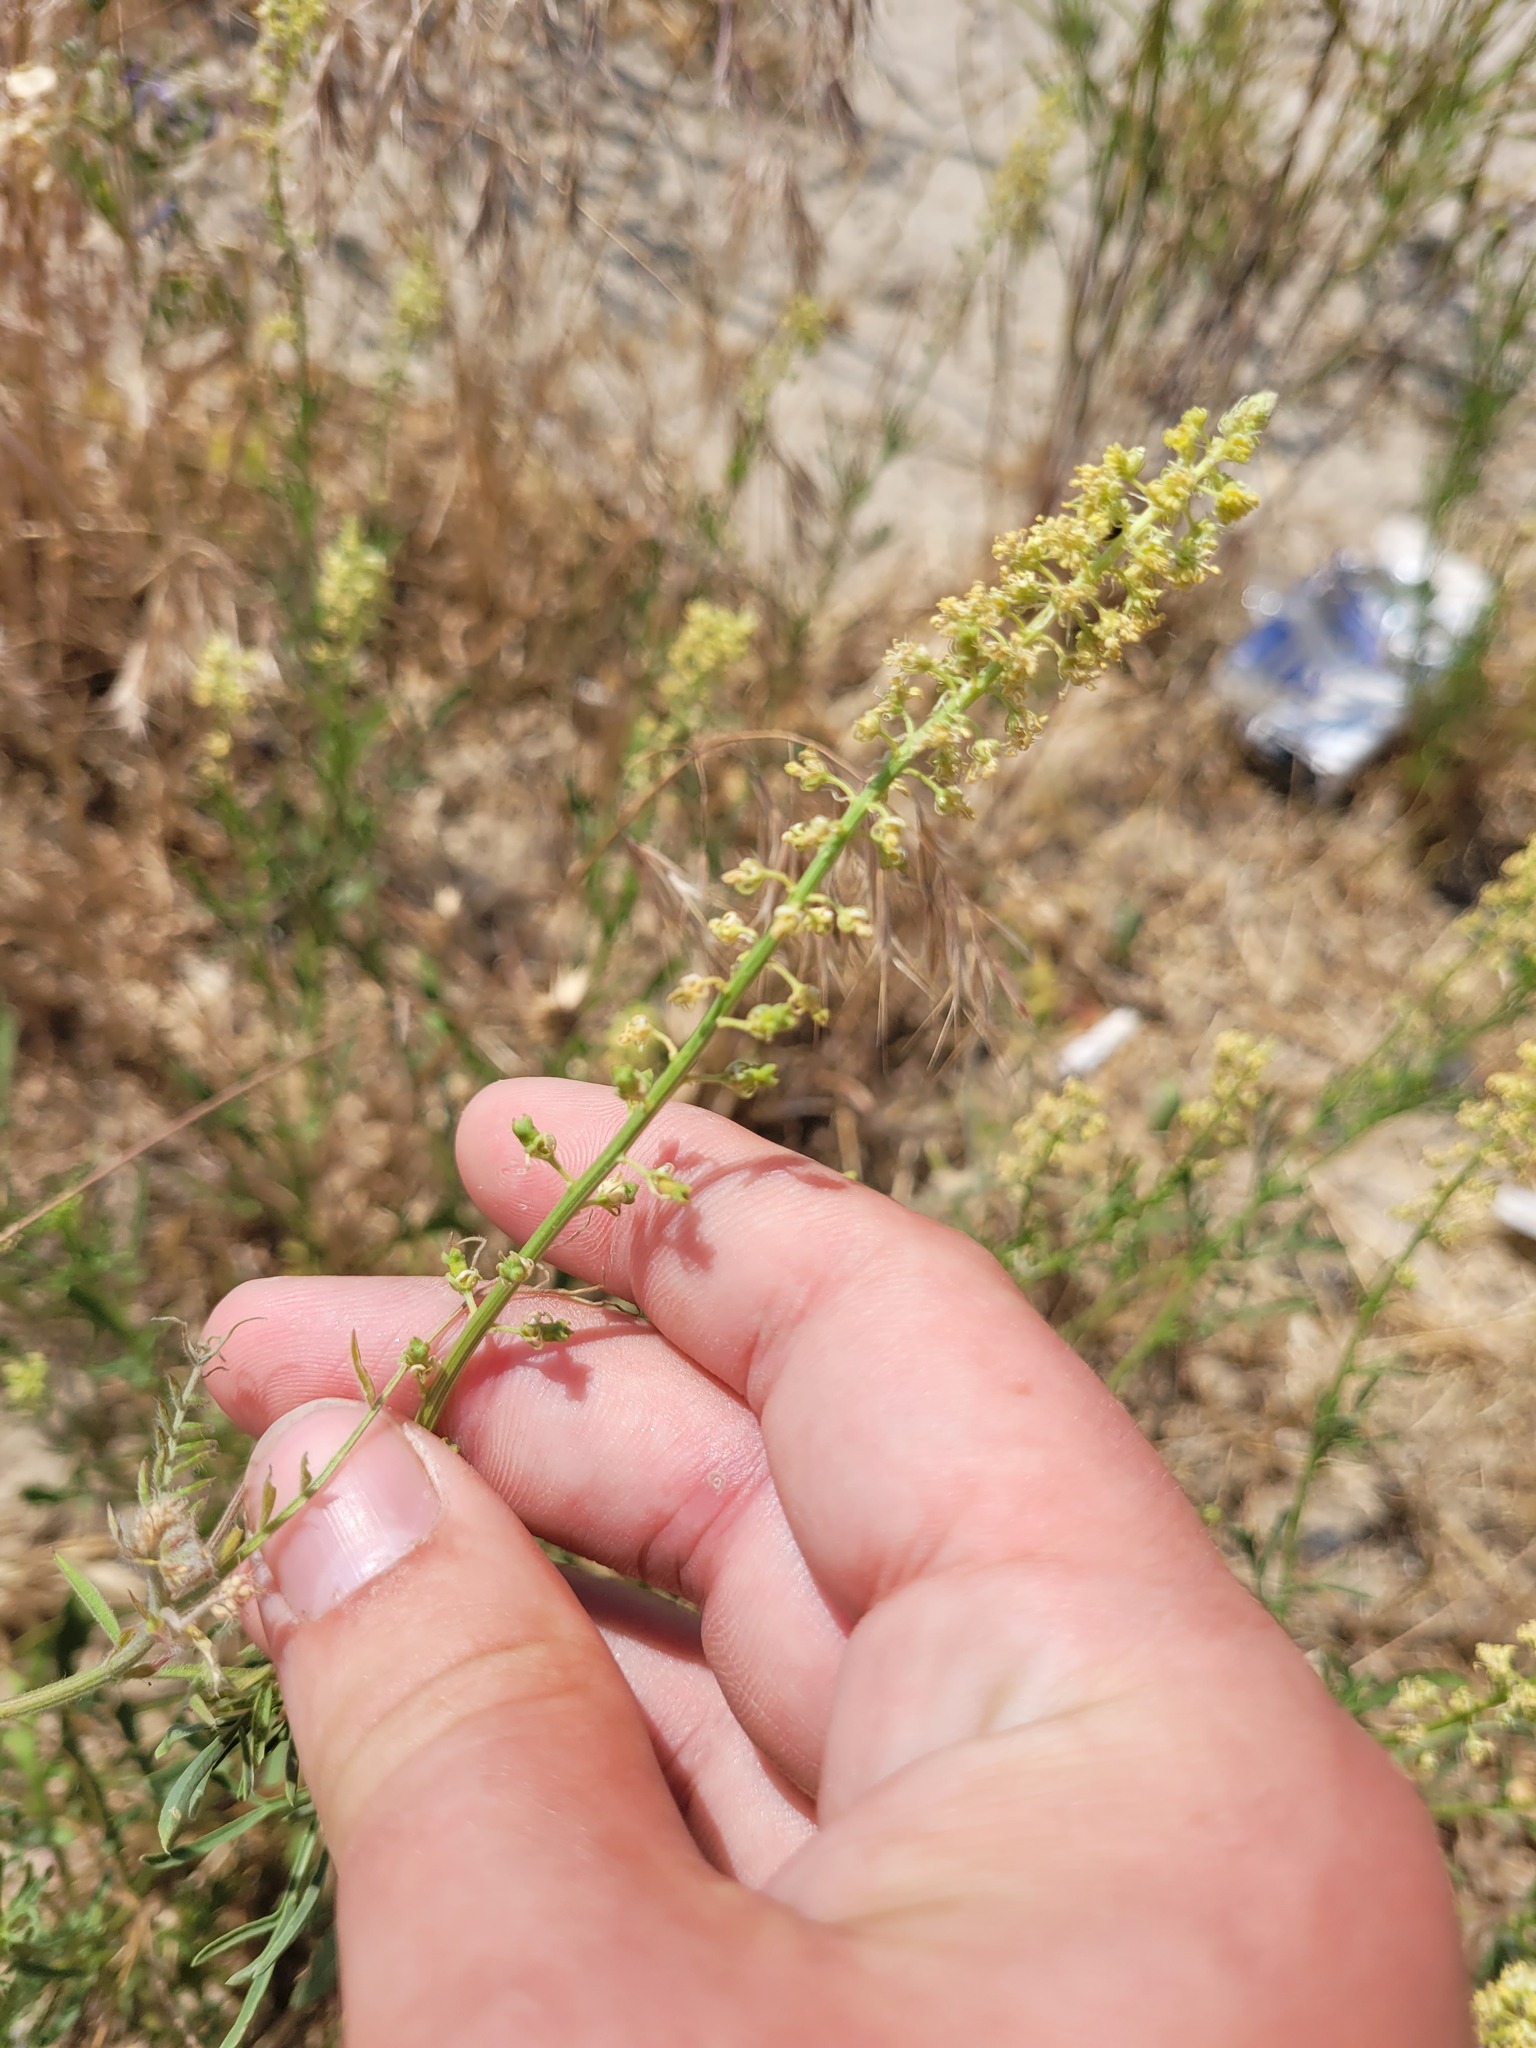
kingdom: Plantae
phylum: Tracheophyta
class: Magnoliopsida
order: Brassicales
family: Resedaceae
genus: Reseda
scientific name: Reseda lutea
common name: Wild mignonette
